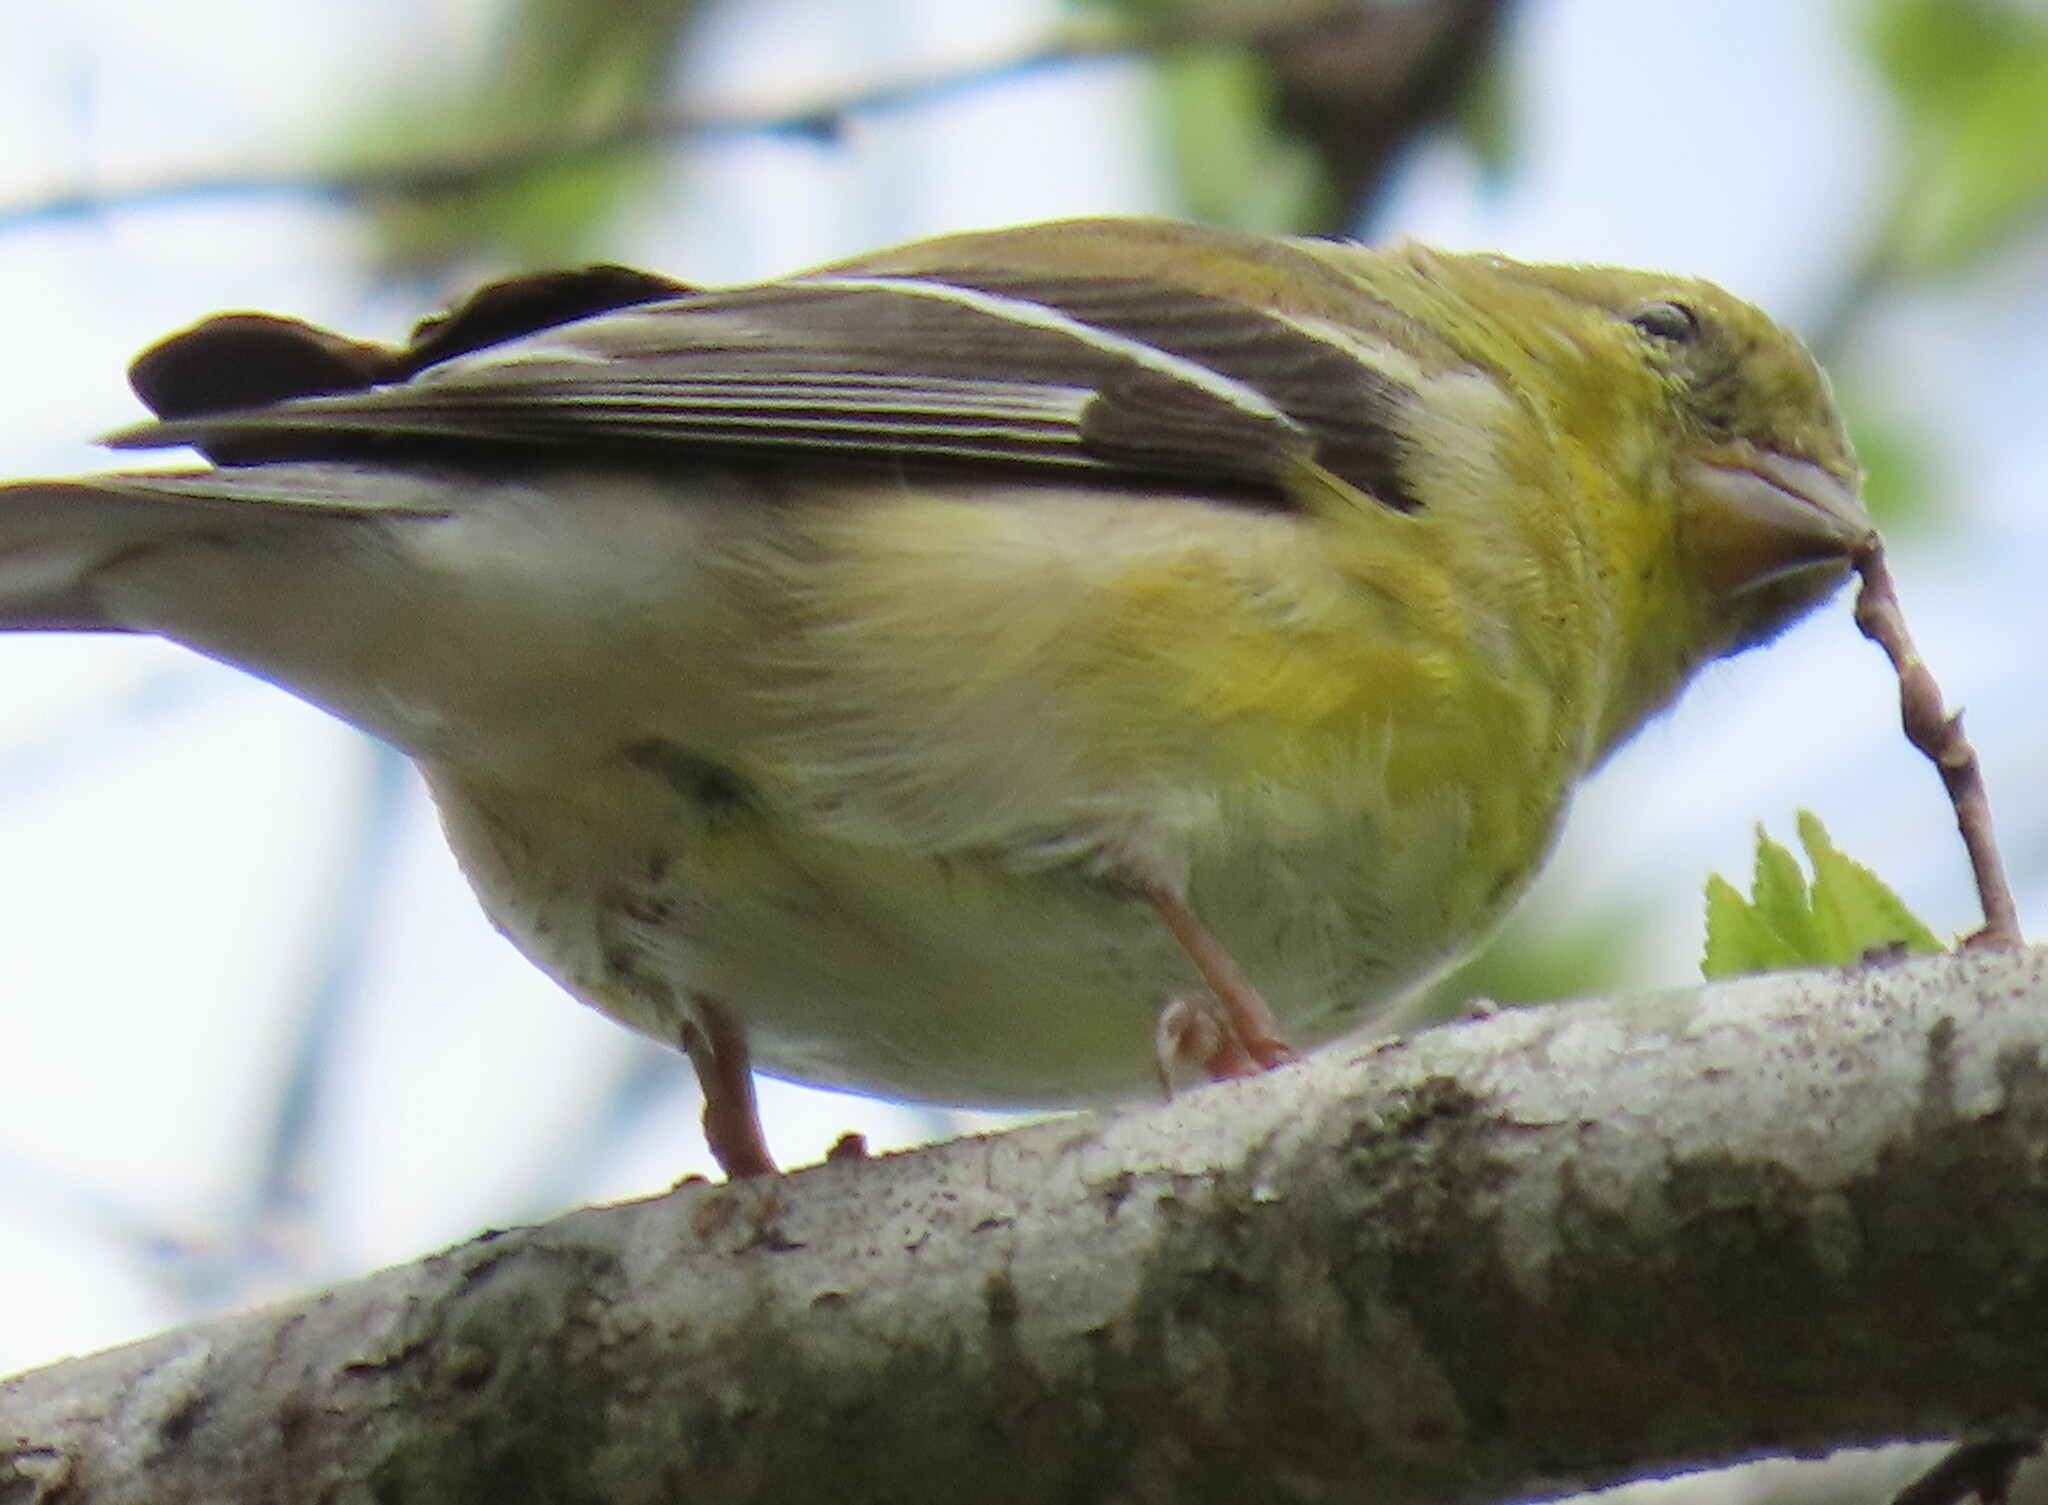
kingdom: Animalia
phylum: Chordata
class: Aves
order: Passeriformes
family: Fringillidae
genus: Spinus
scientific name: Spinus tristis
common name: American goldfinch
